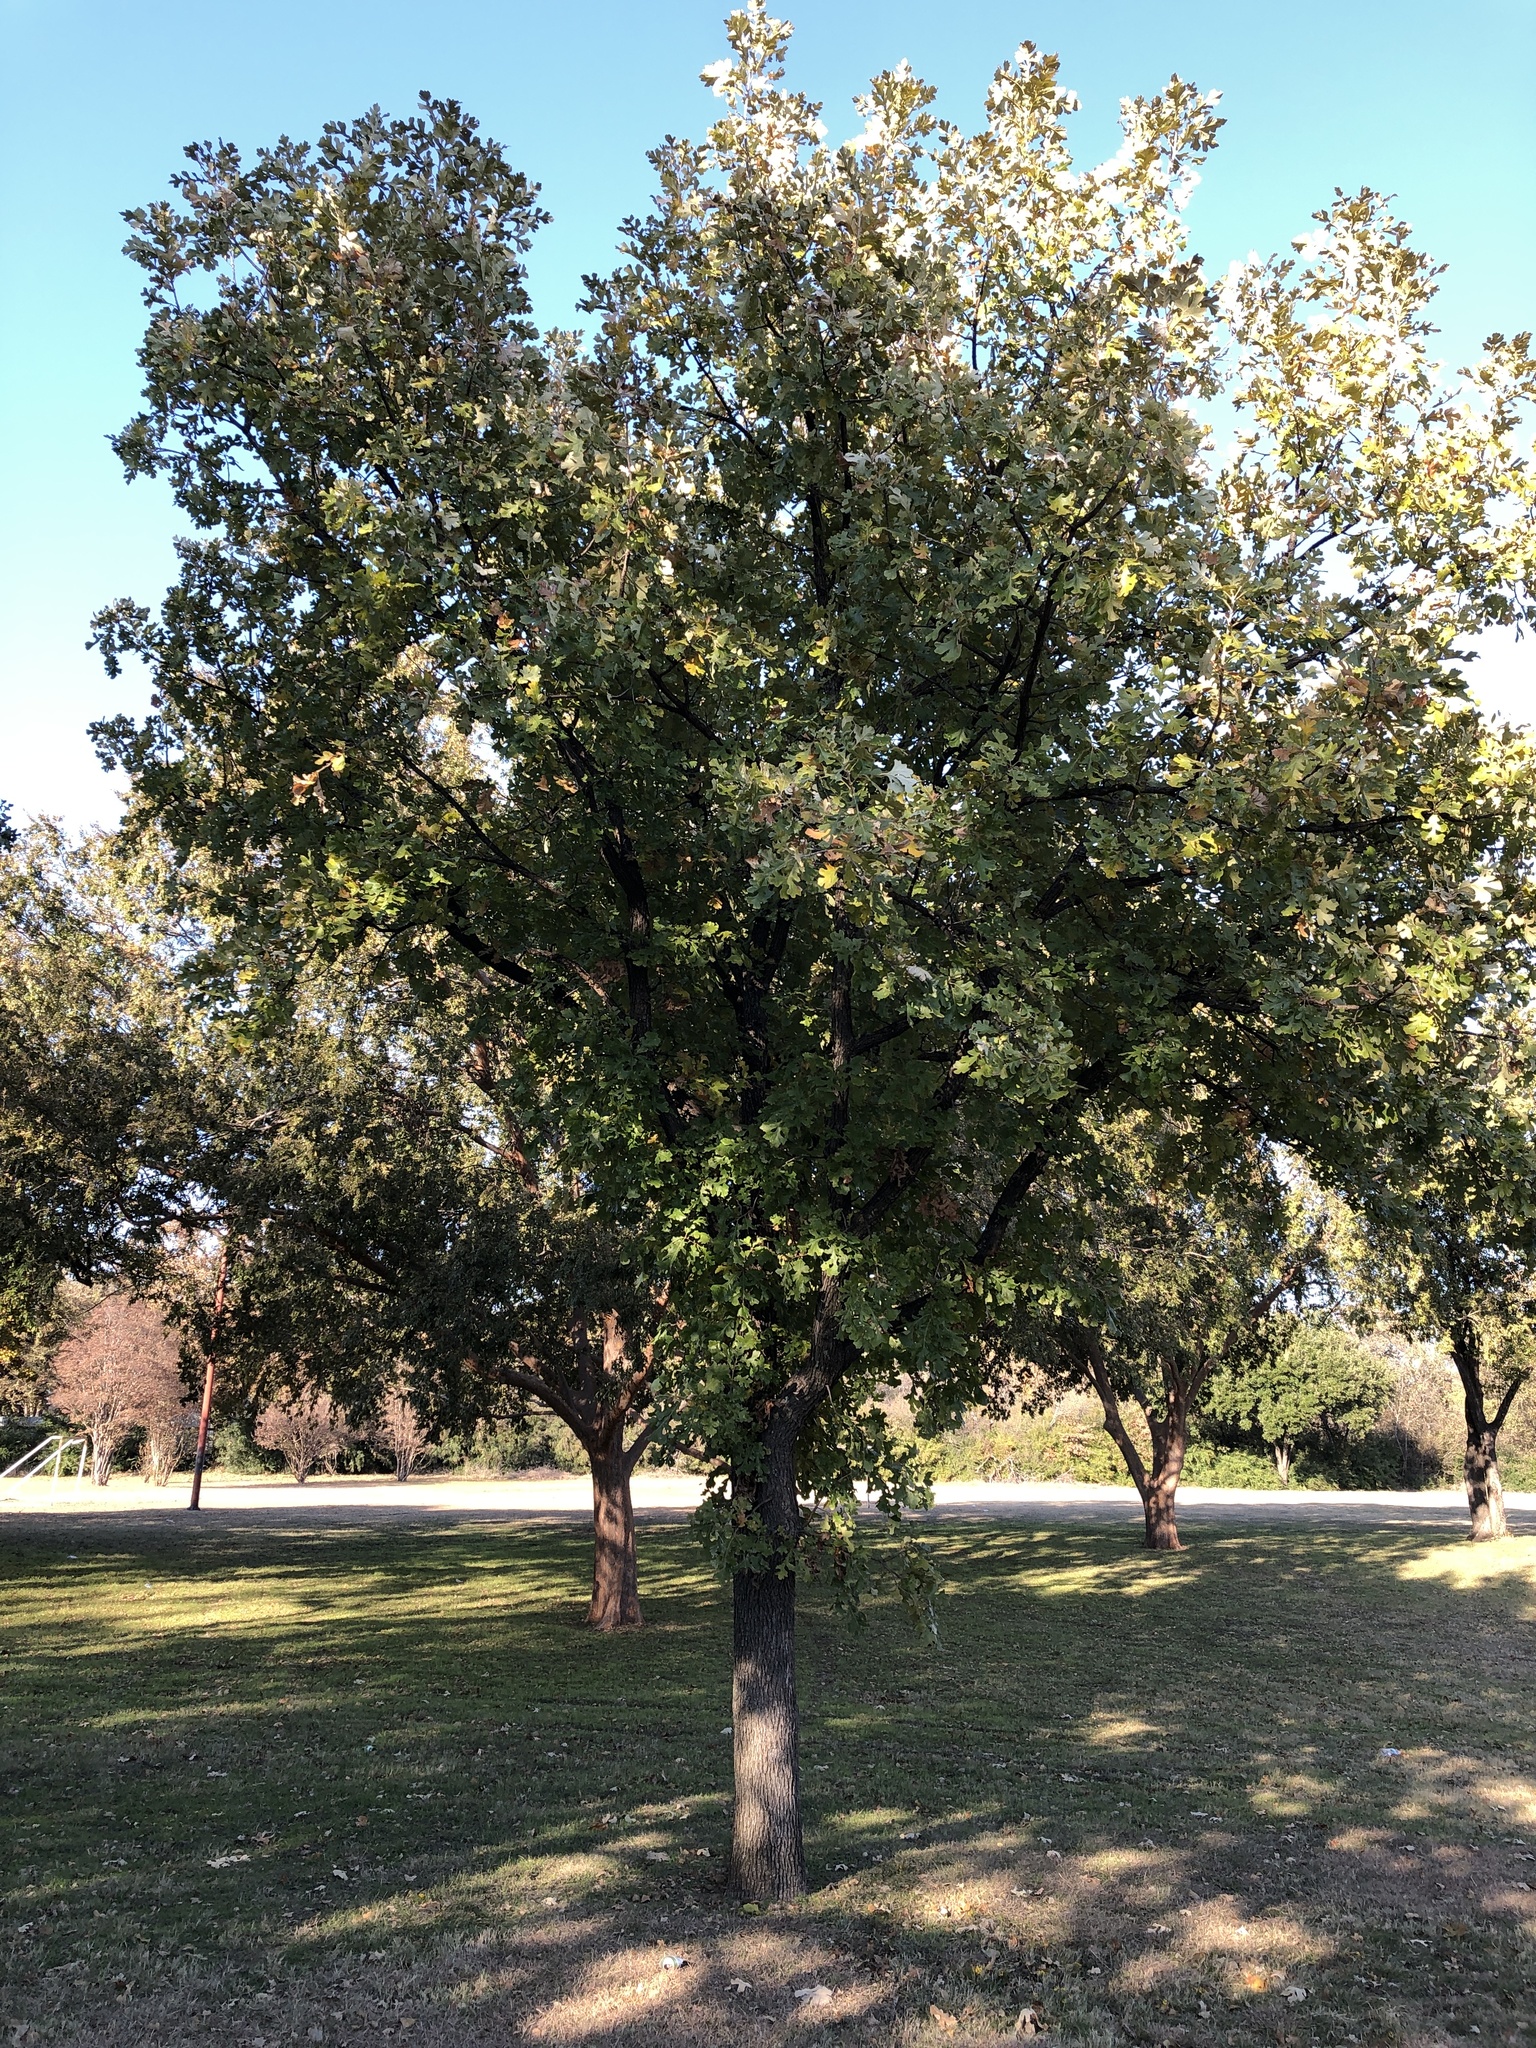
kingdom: Plantae
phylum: Tracheophyta
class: Magnoliopsida
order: Fagales
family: Fagaceae
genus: Quercus
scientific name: Quercus macrocarpa
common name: Bur oak
